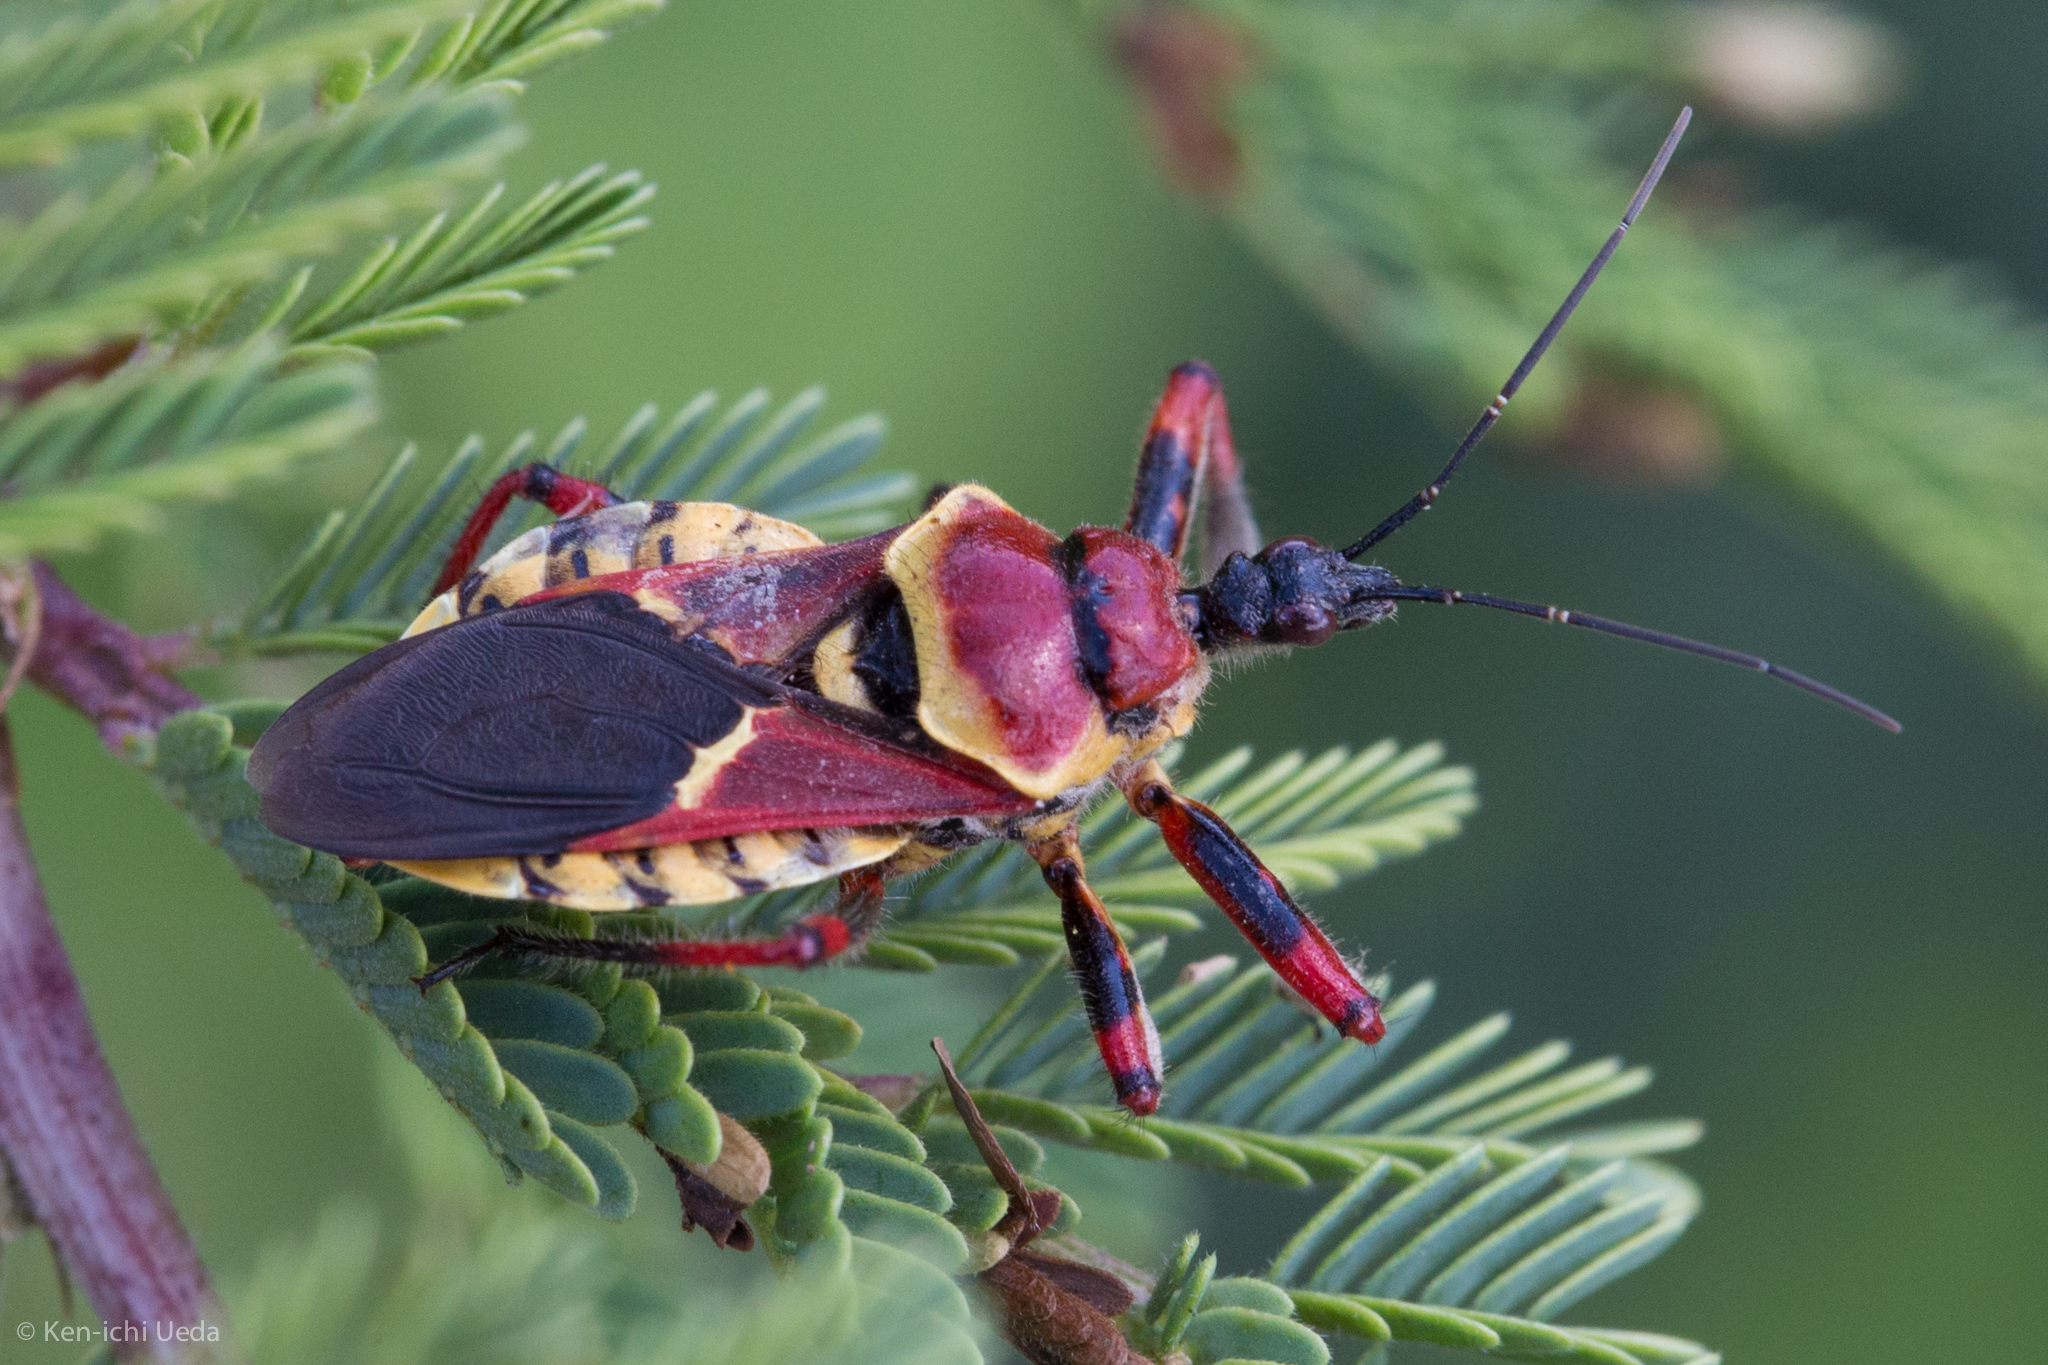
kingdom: Animalia
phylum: Arthropoda
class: Insecta
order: Hemiptera
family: Reduviidae
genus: Apiomerus
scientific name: Apiomerus flaviventris
